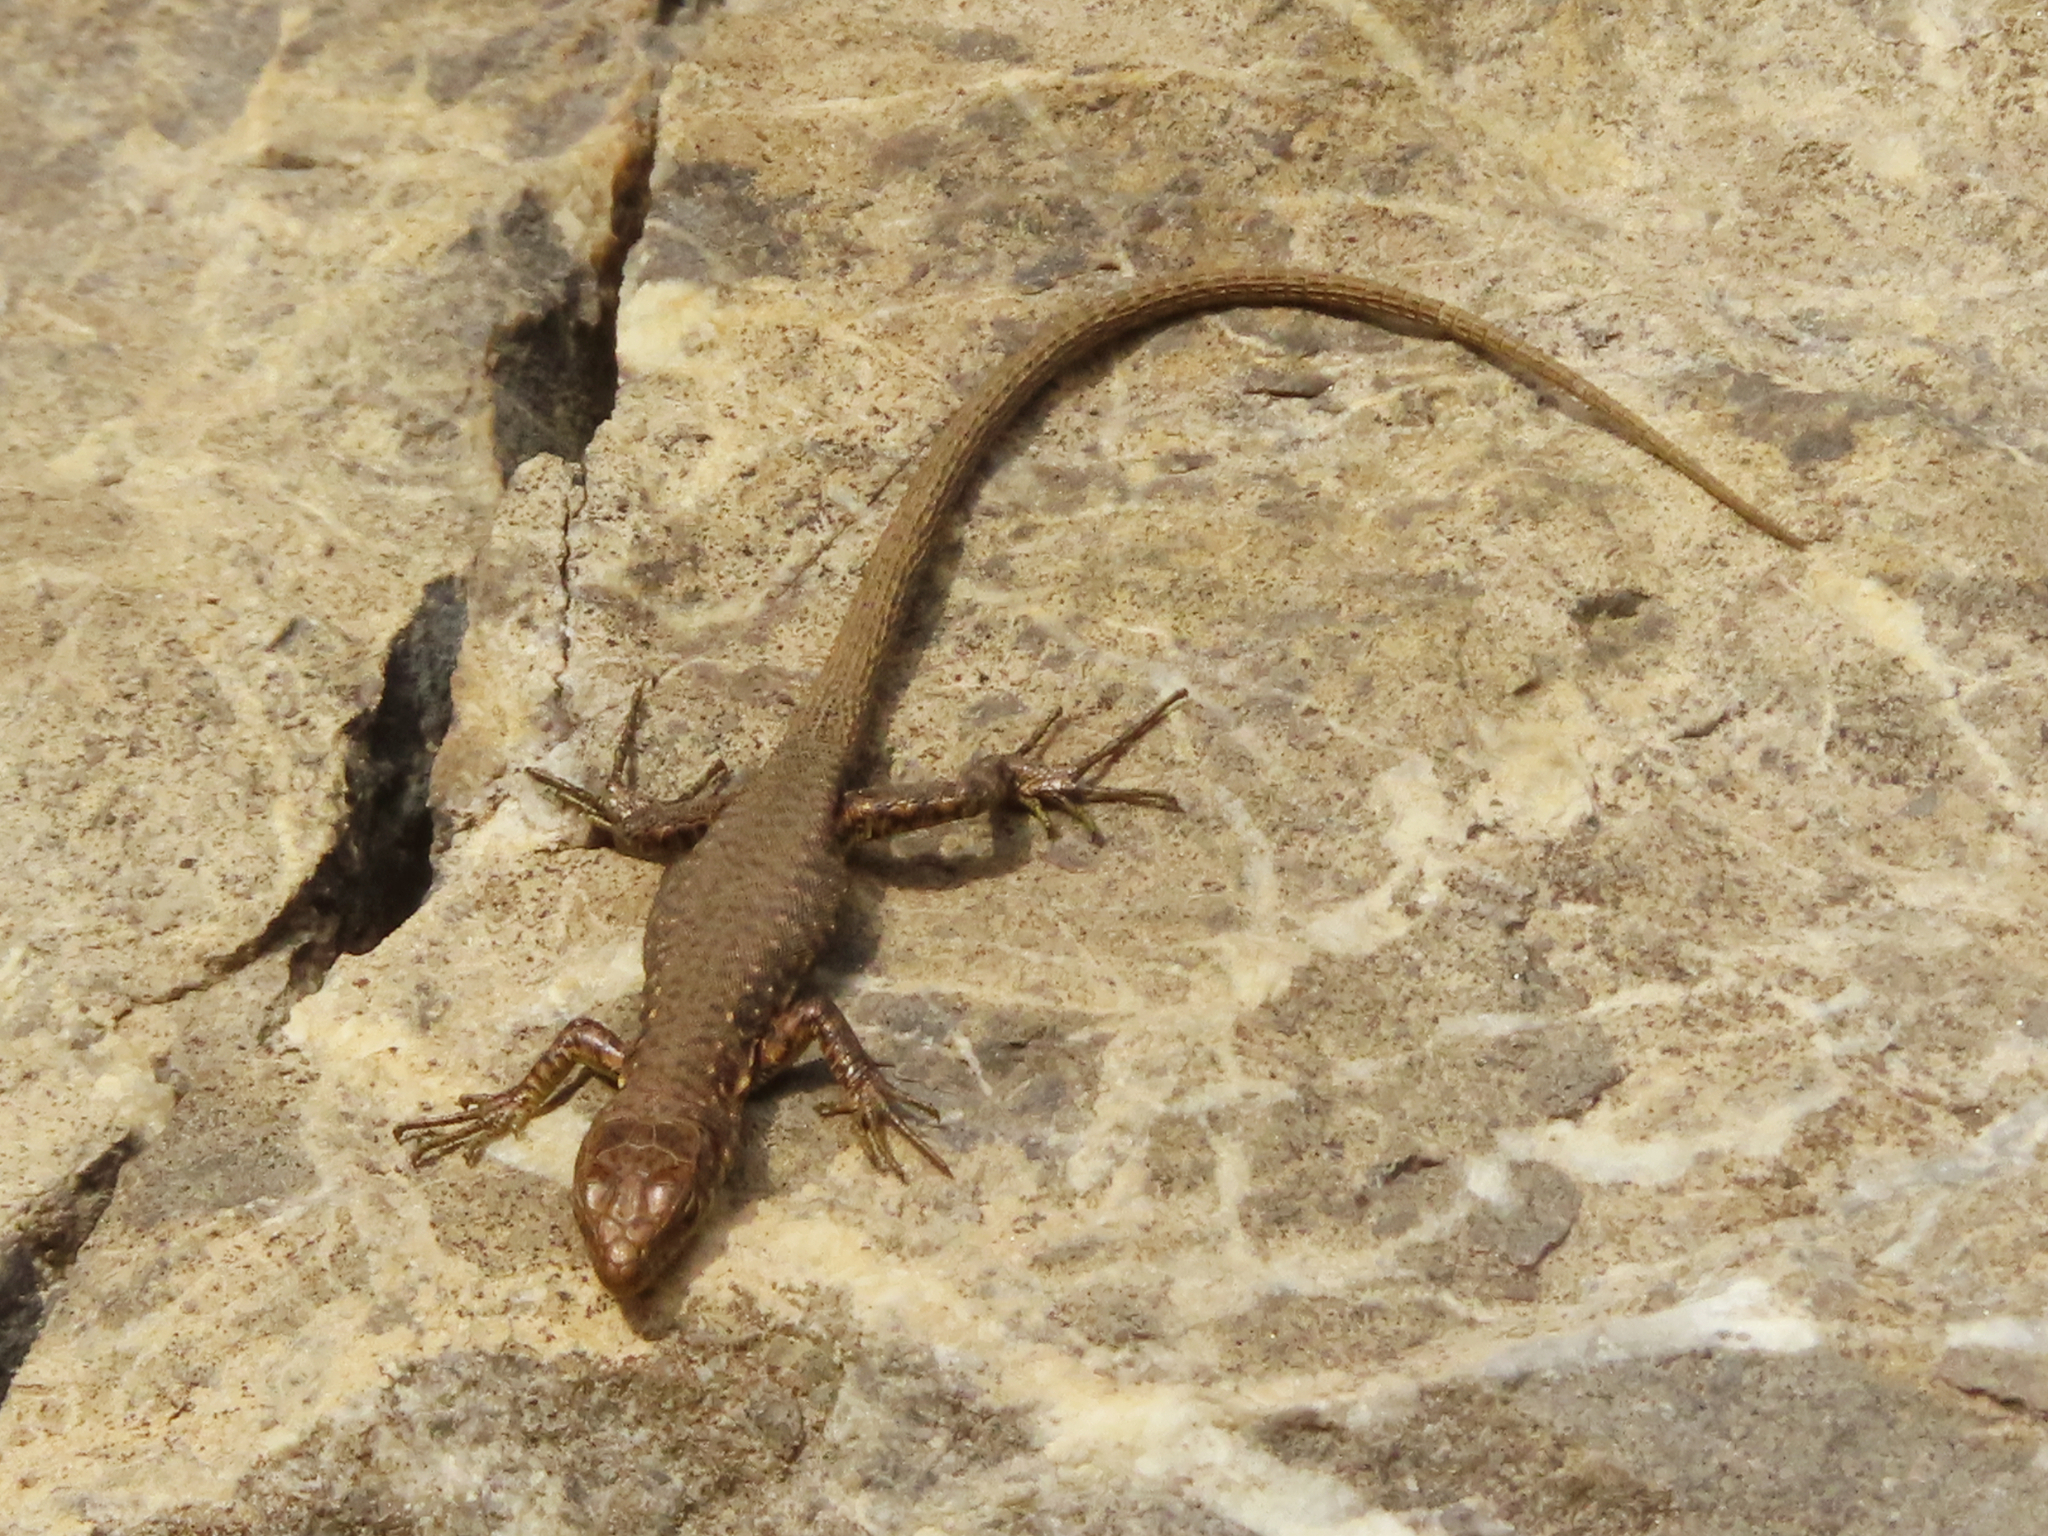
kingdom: Animalia
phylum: Chordata
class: Squamata
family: Lacertidae
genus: Darevskia
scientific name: Darevskia bithynica
